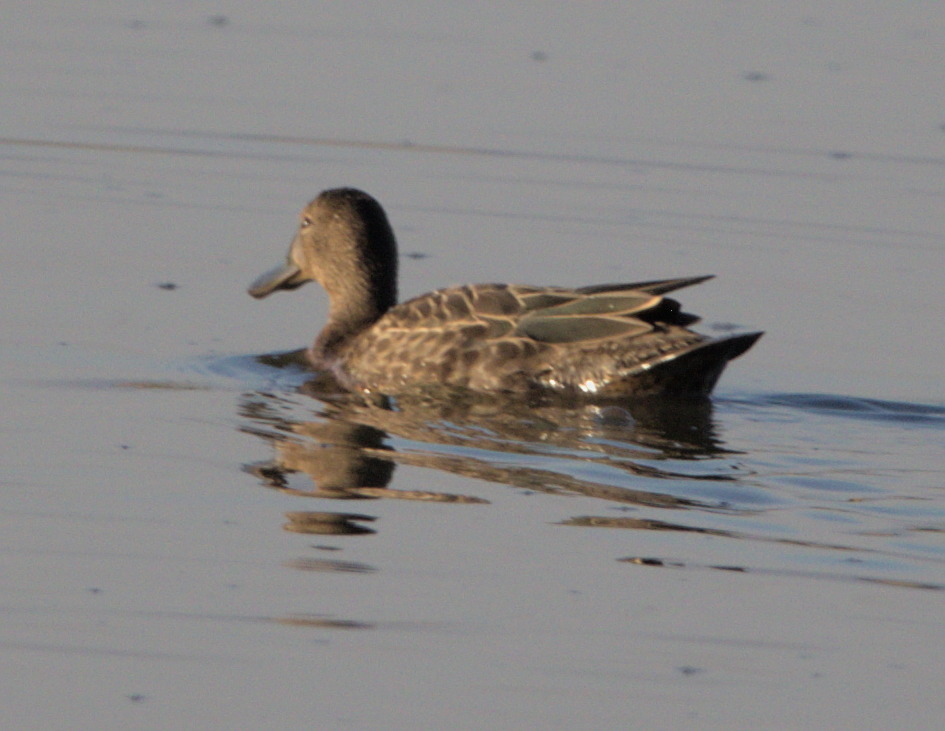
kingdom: Animalia
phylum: Chordata
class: Aves
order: Anseriformes
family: Anatidae
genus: Spatula
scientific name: Spatula cyanoptera
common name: Cinnamon teal
